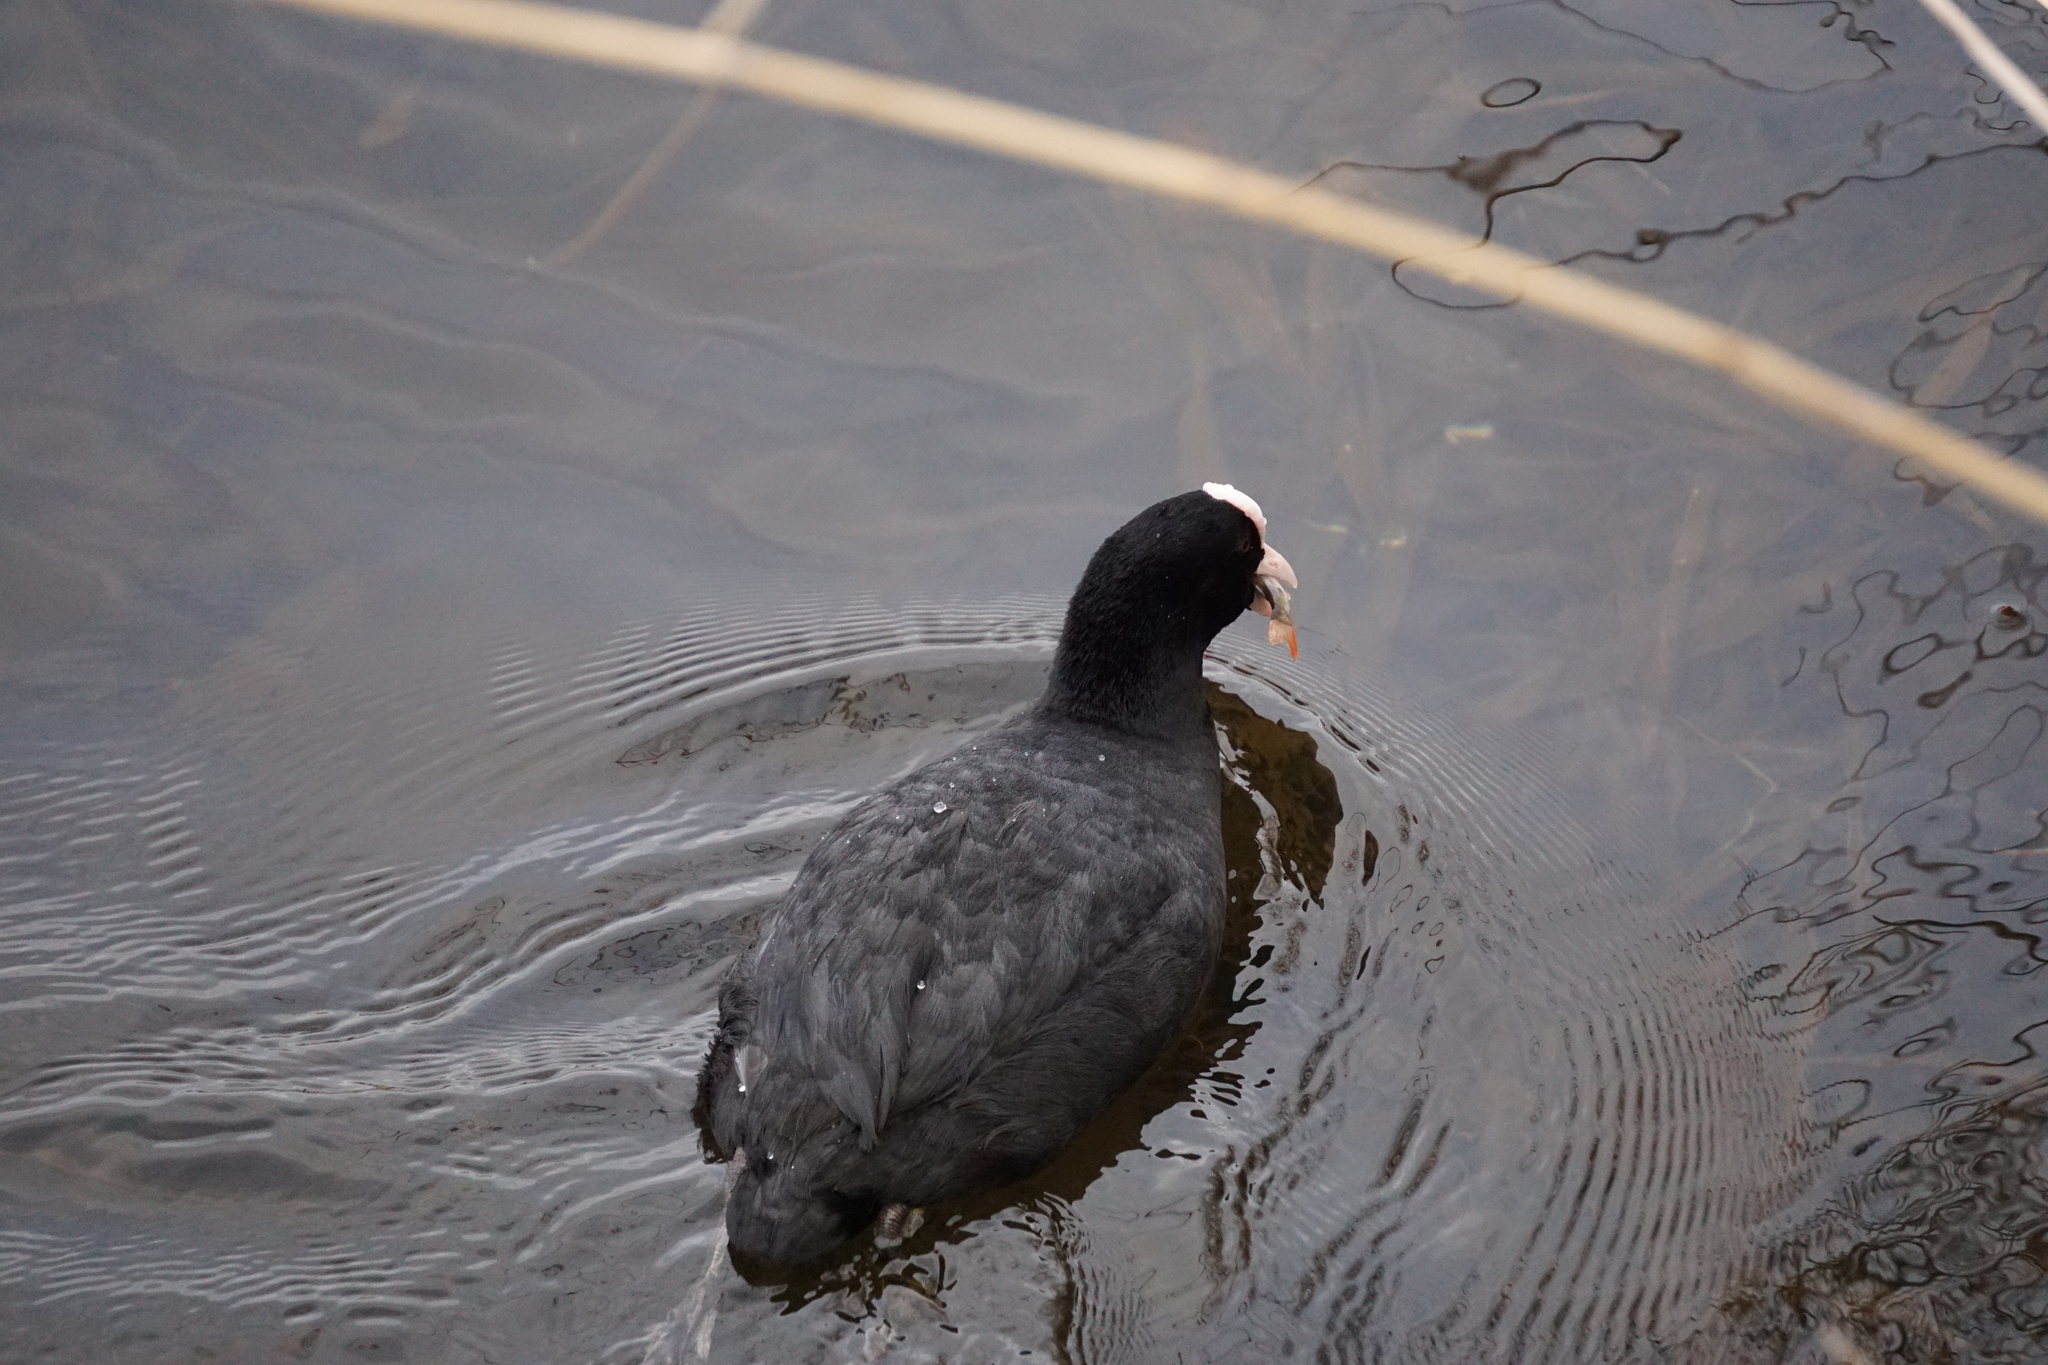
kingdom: Animalia
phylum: Chordata
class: Aves
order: Gruiformes
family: Rallidae
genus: Fulica
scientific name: Fulica atra
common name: Eurasian coot
